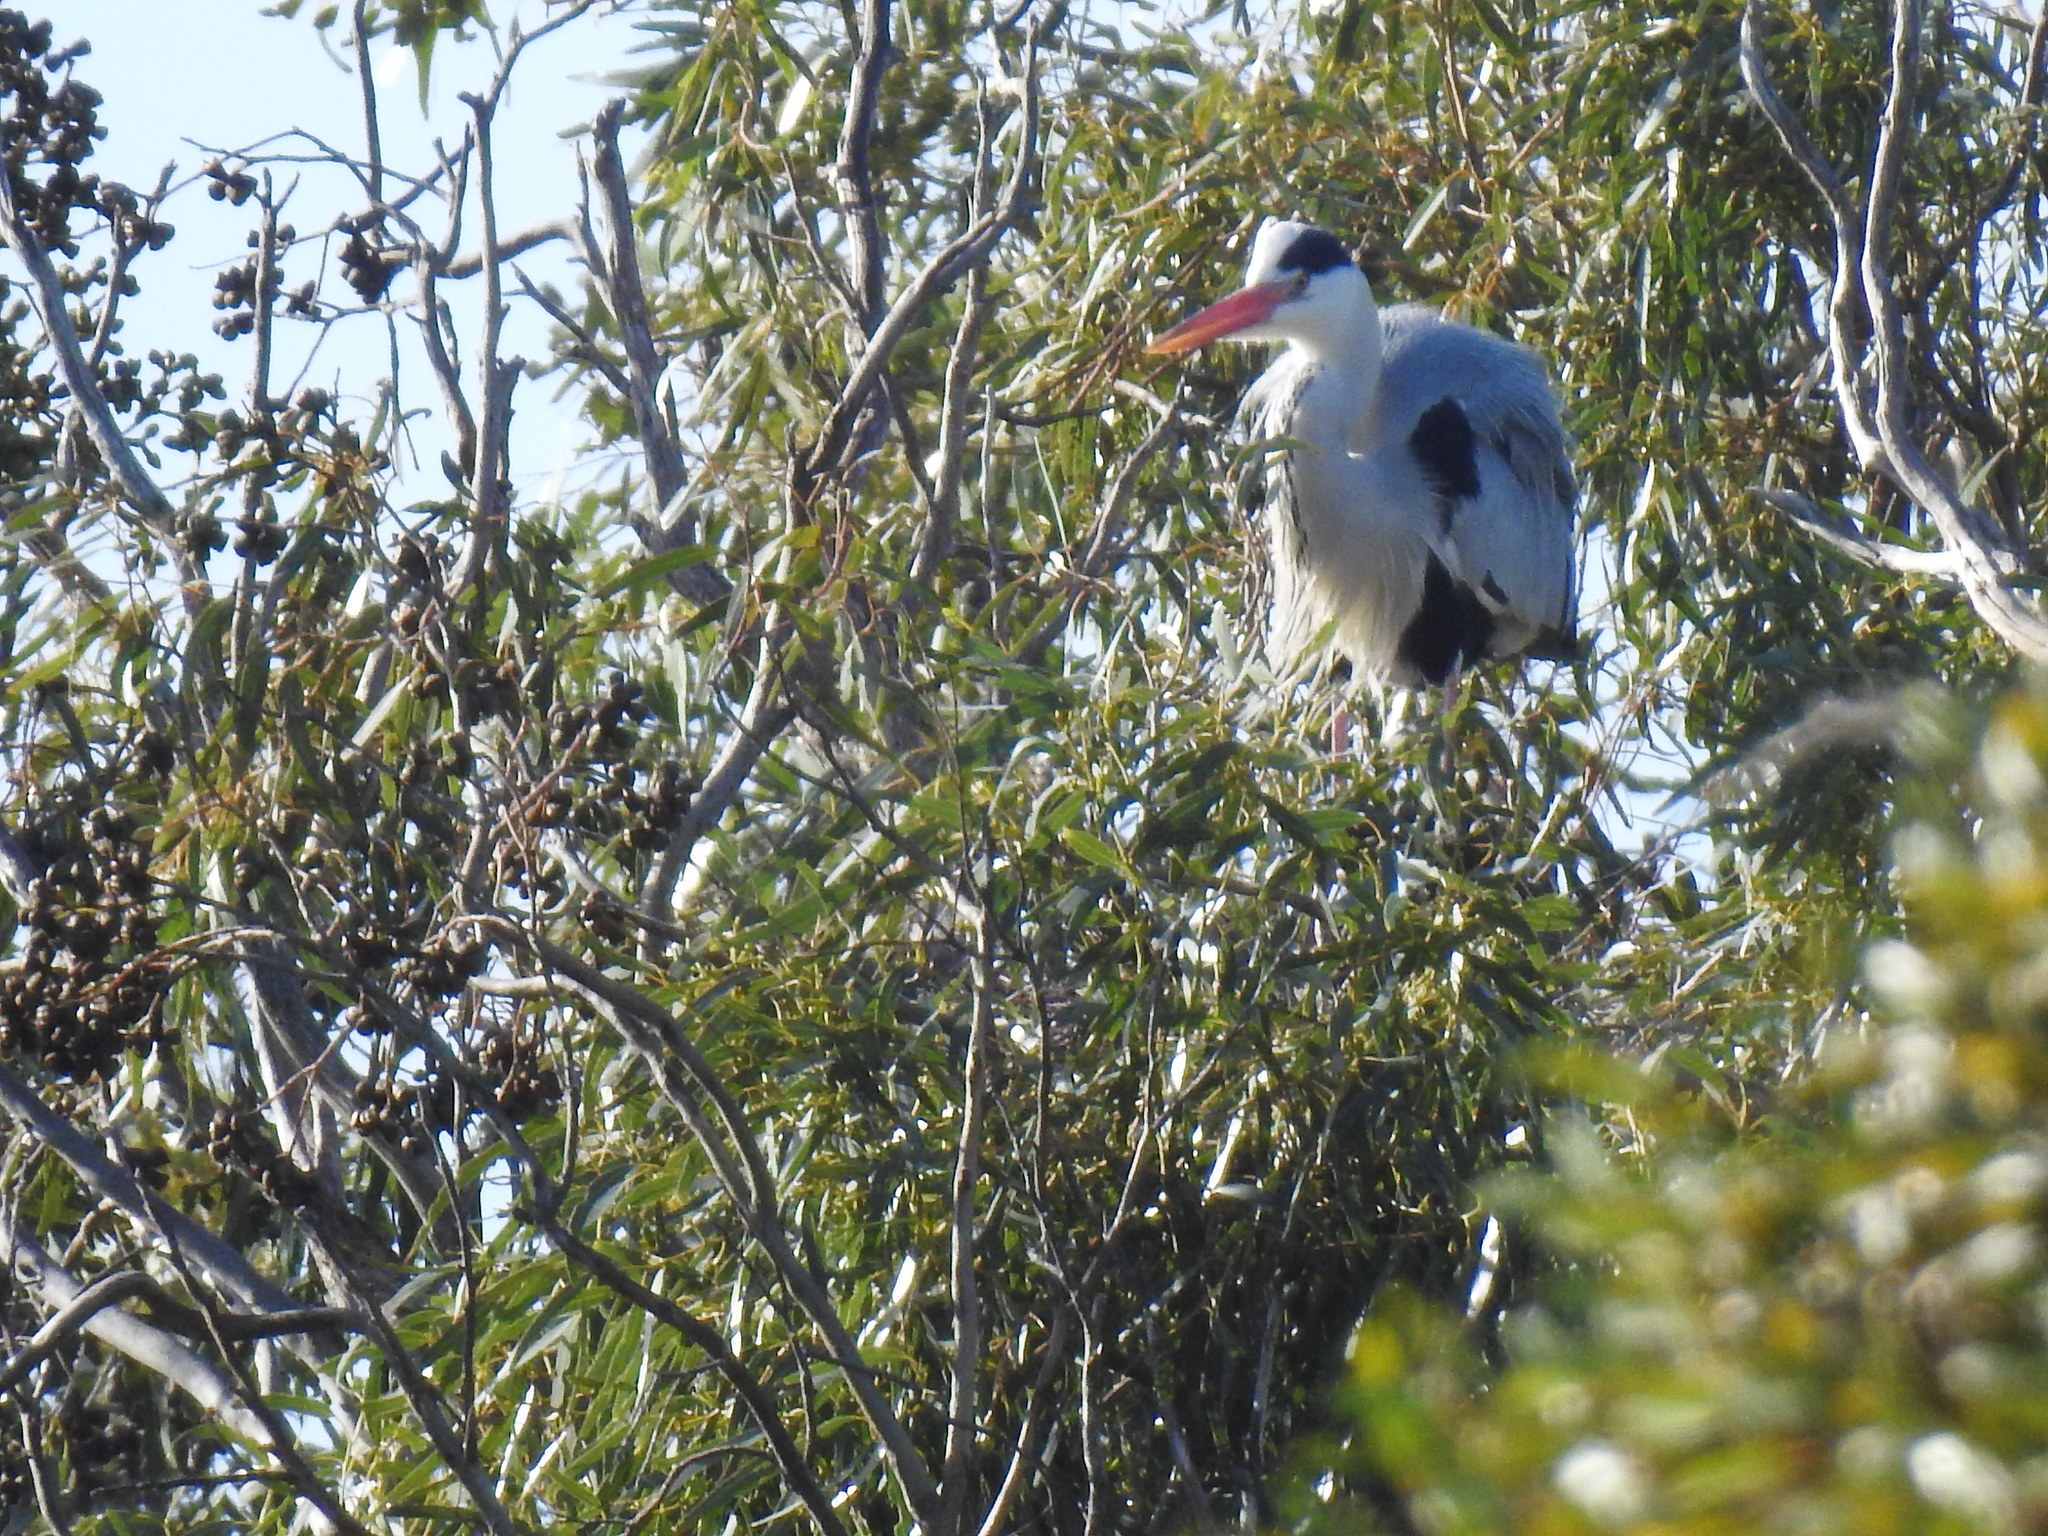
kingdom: Animalia
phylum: Chordata
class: Aves
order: Pelecaniformes
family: Ardeidae
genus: Ardea
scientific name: Ardea cinerea
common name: Grey heron
